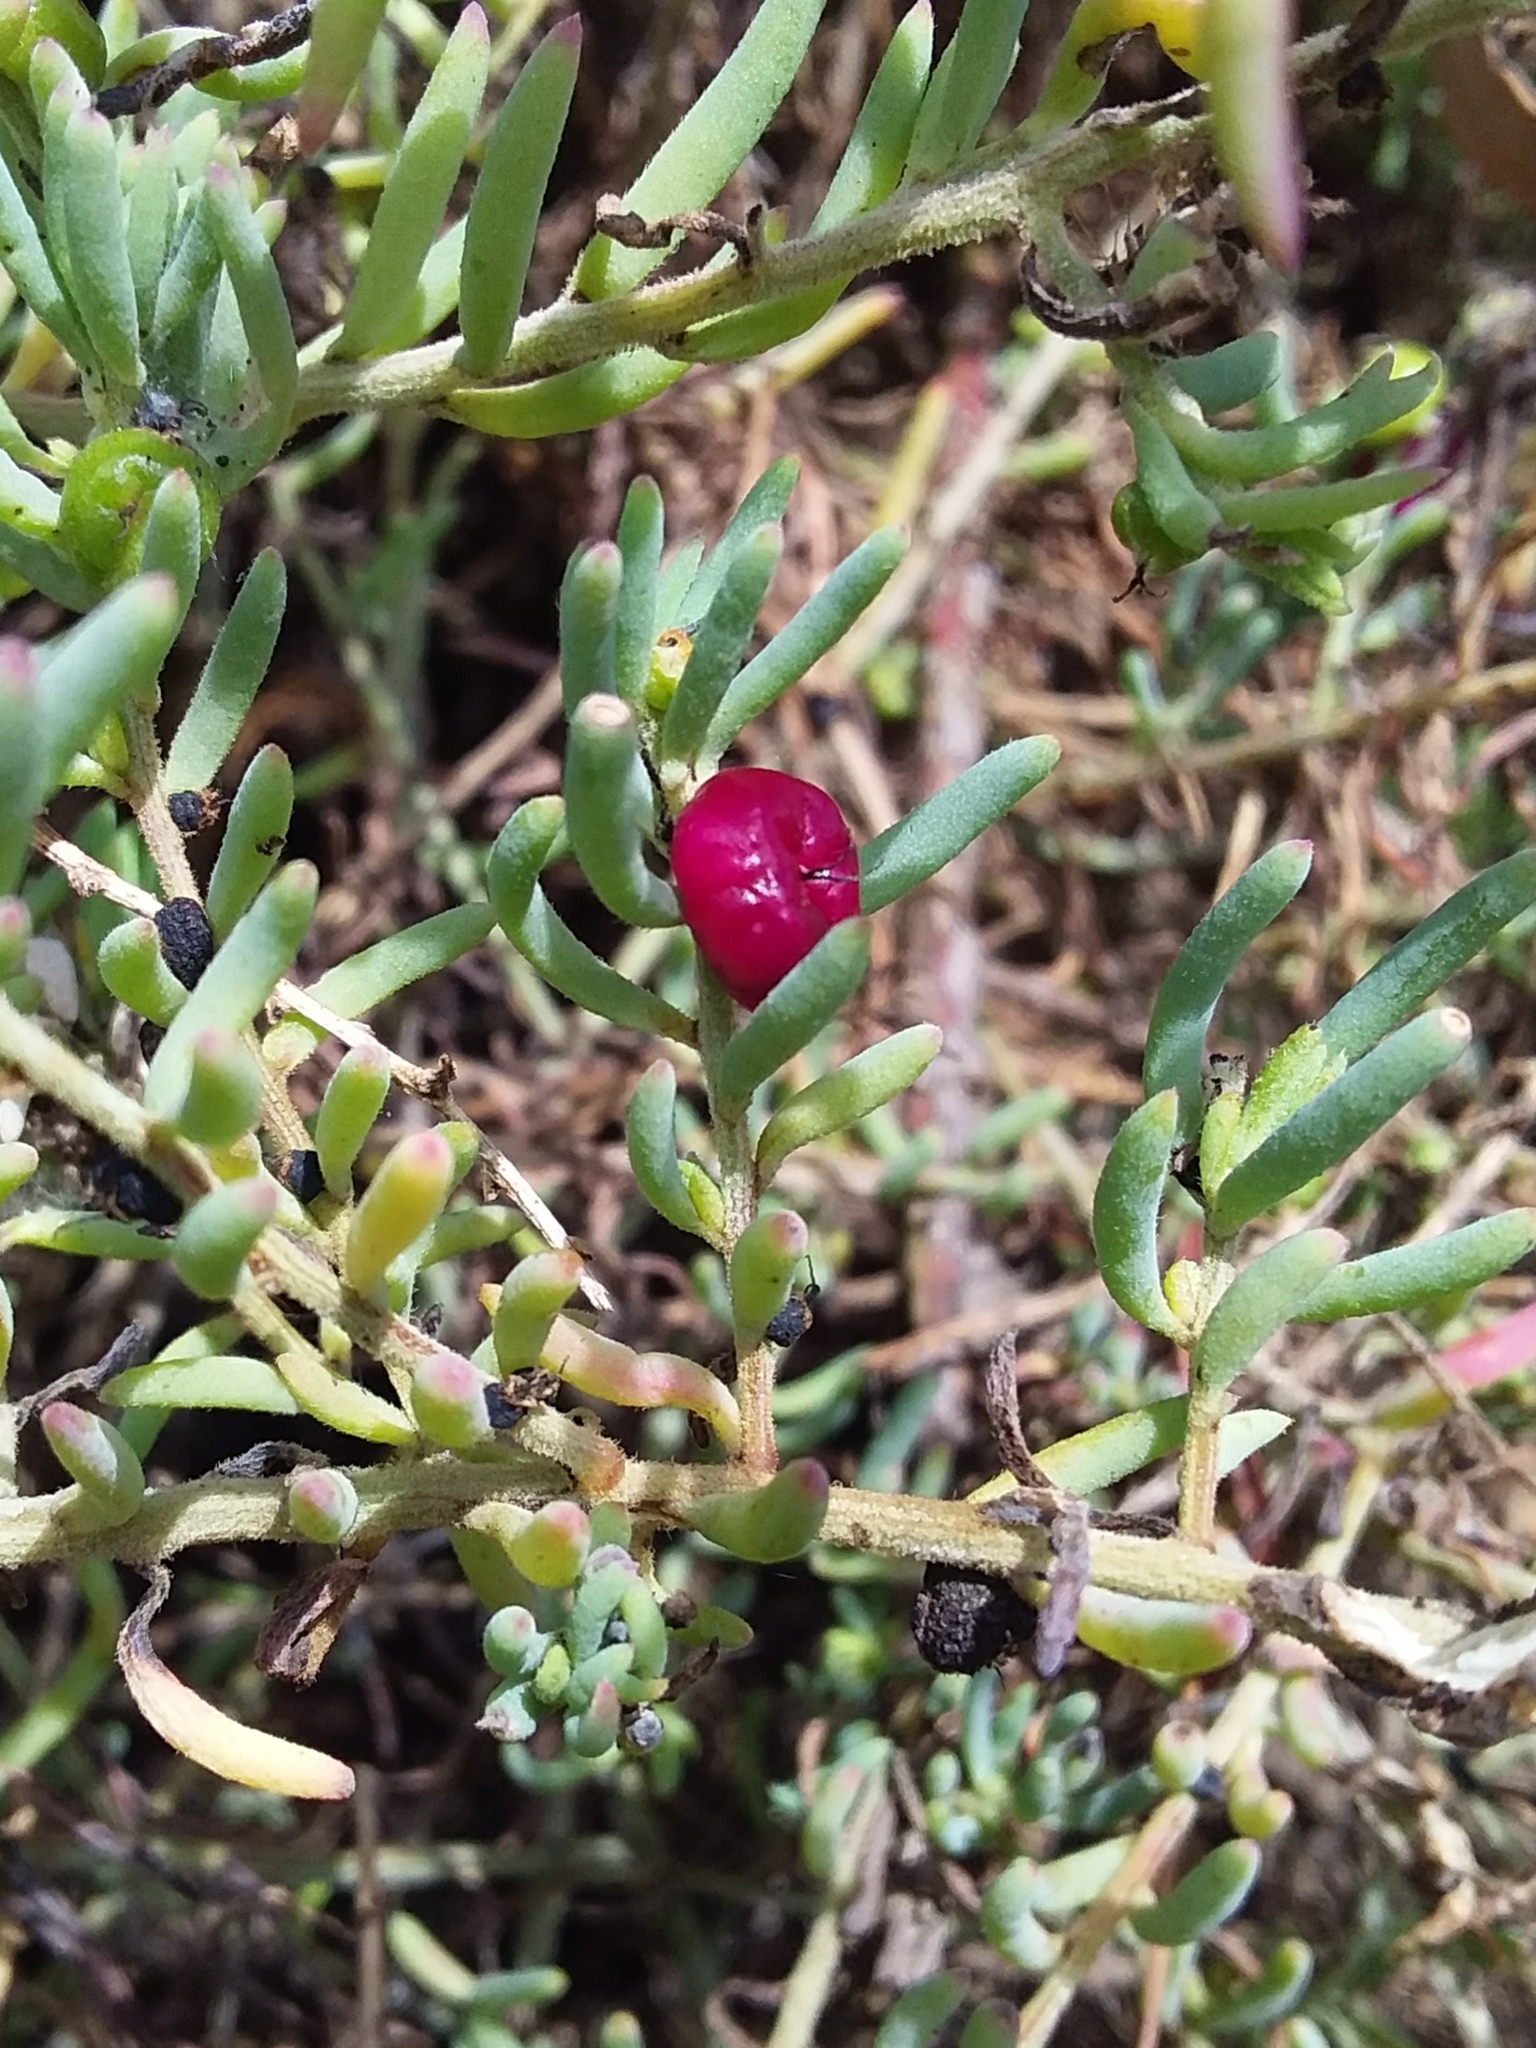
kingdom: Plantae
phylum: Tracheophyta
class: Magnoliopsida
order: Caryophyllales
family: Amaranthaceae
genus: Enchylaena
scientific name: Enchylaena tomentosa
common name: Ruby saltbush
